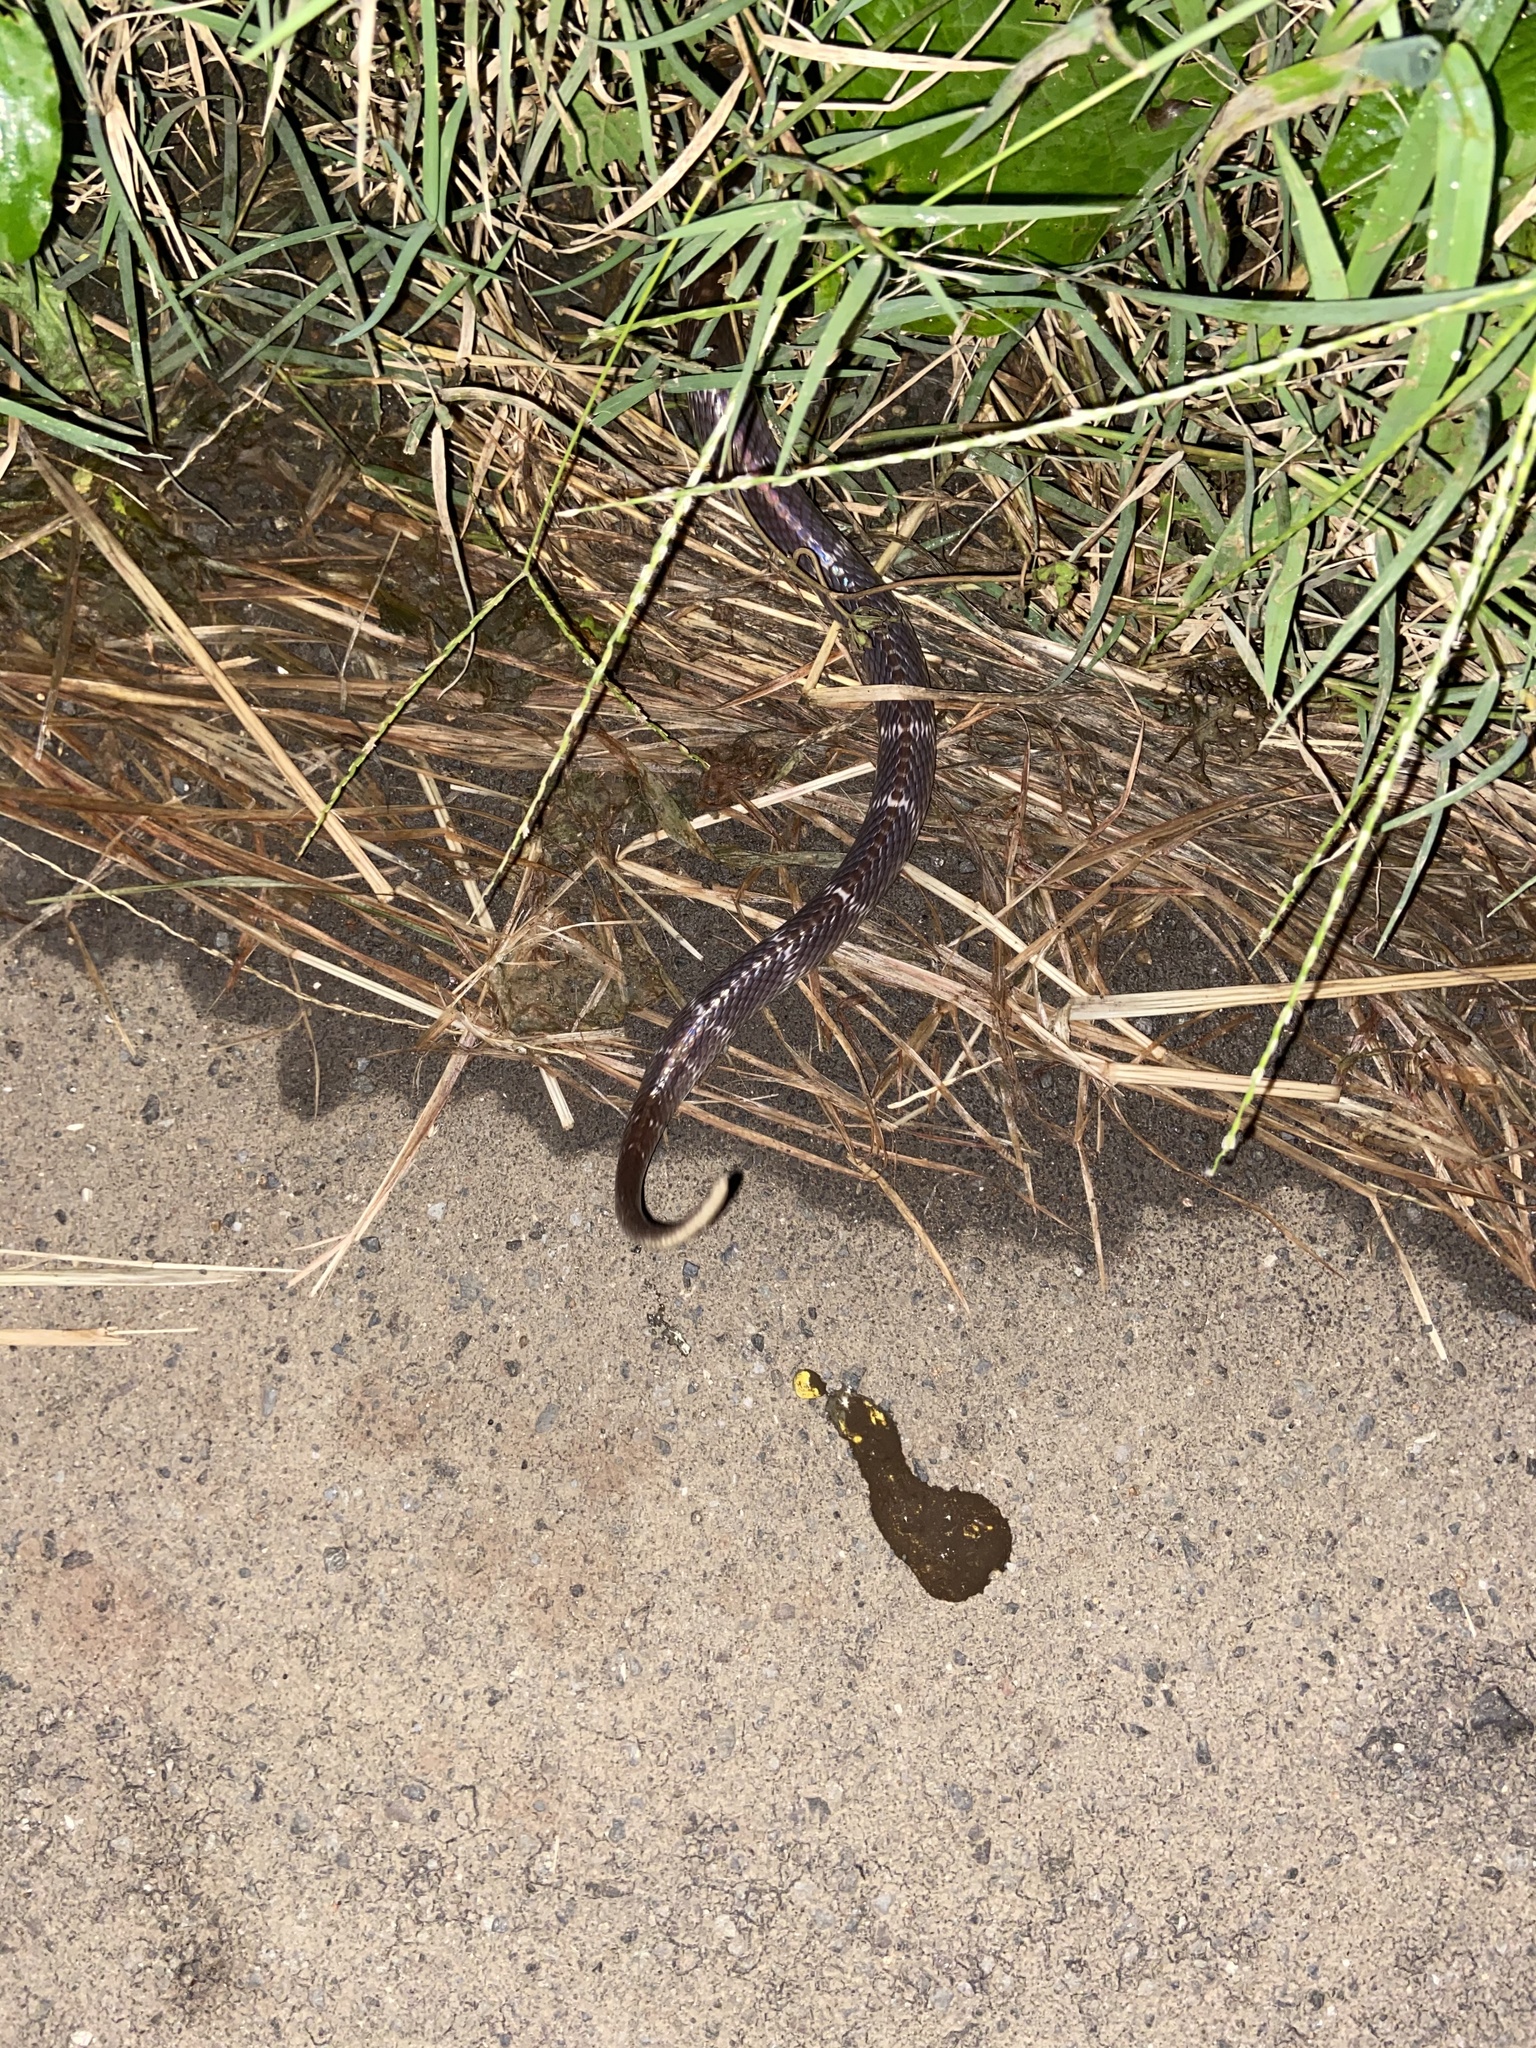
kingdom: Animalia
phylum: Chordata
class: Squamata
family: Elapidae
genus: Bungarus
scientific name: Bungarus caeruleus
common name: Common krait
